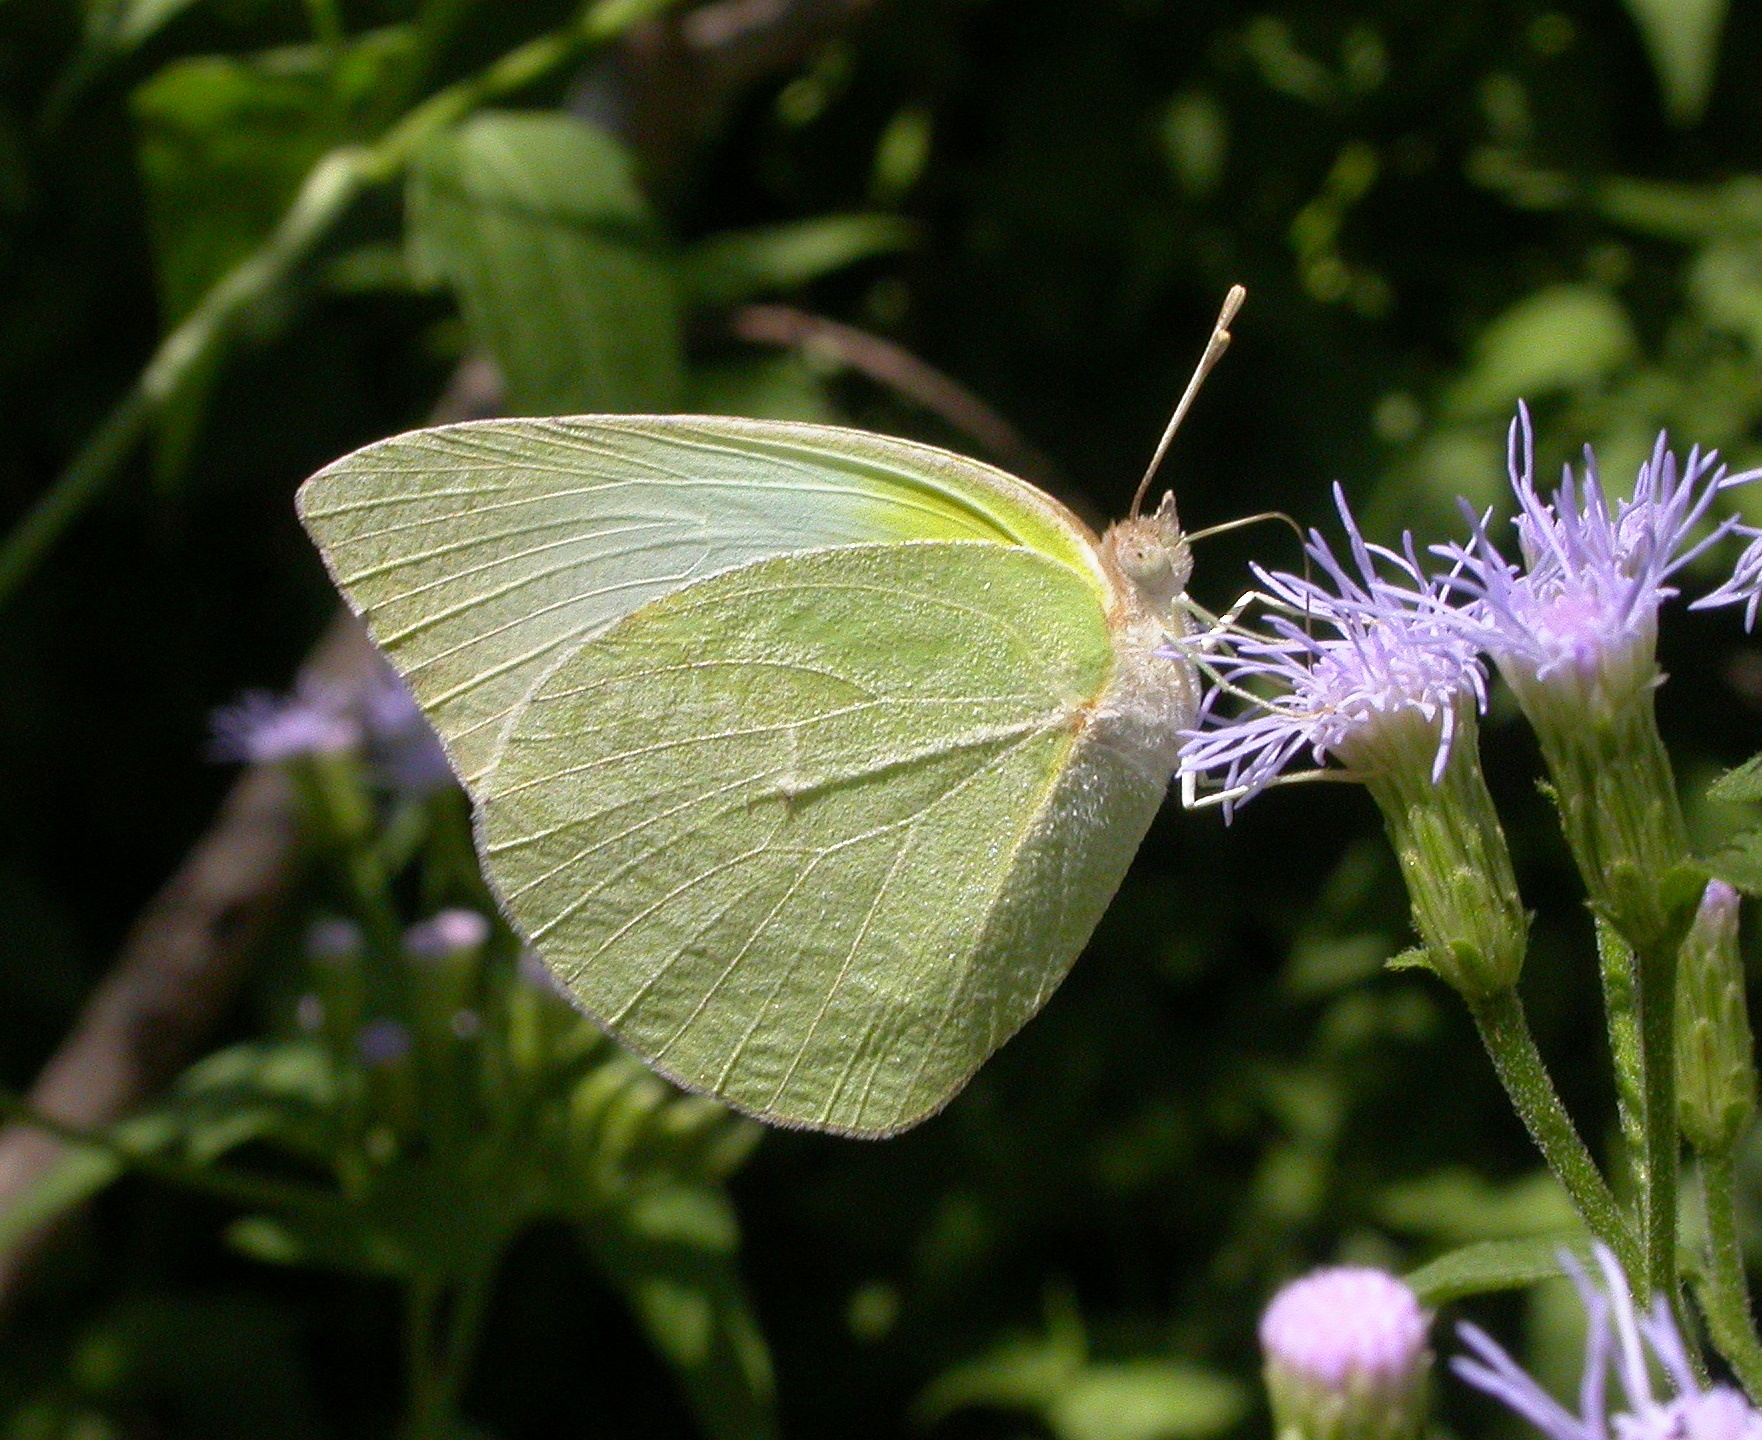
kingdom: Animalia
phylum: Arthropoda
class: Insecta
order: Lepidoptera
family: Pieridae
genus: Kricogonia
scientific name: Kricogonia lyside
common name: Guayacan sulphur,
